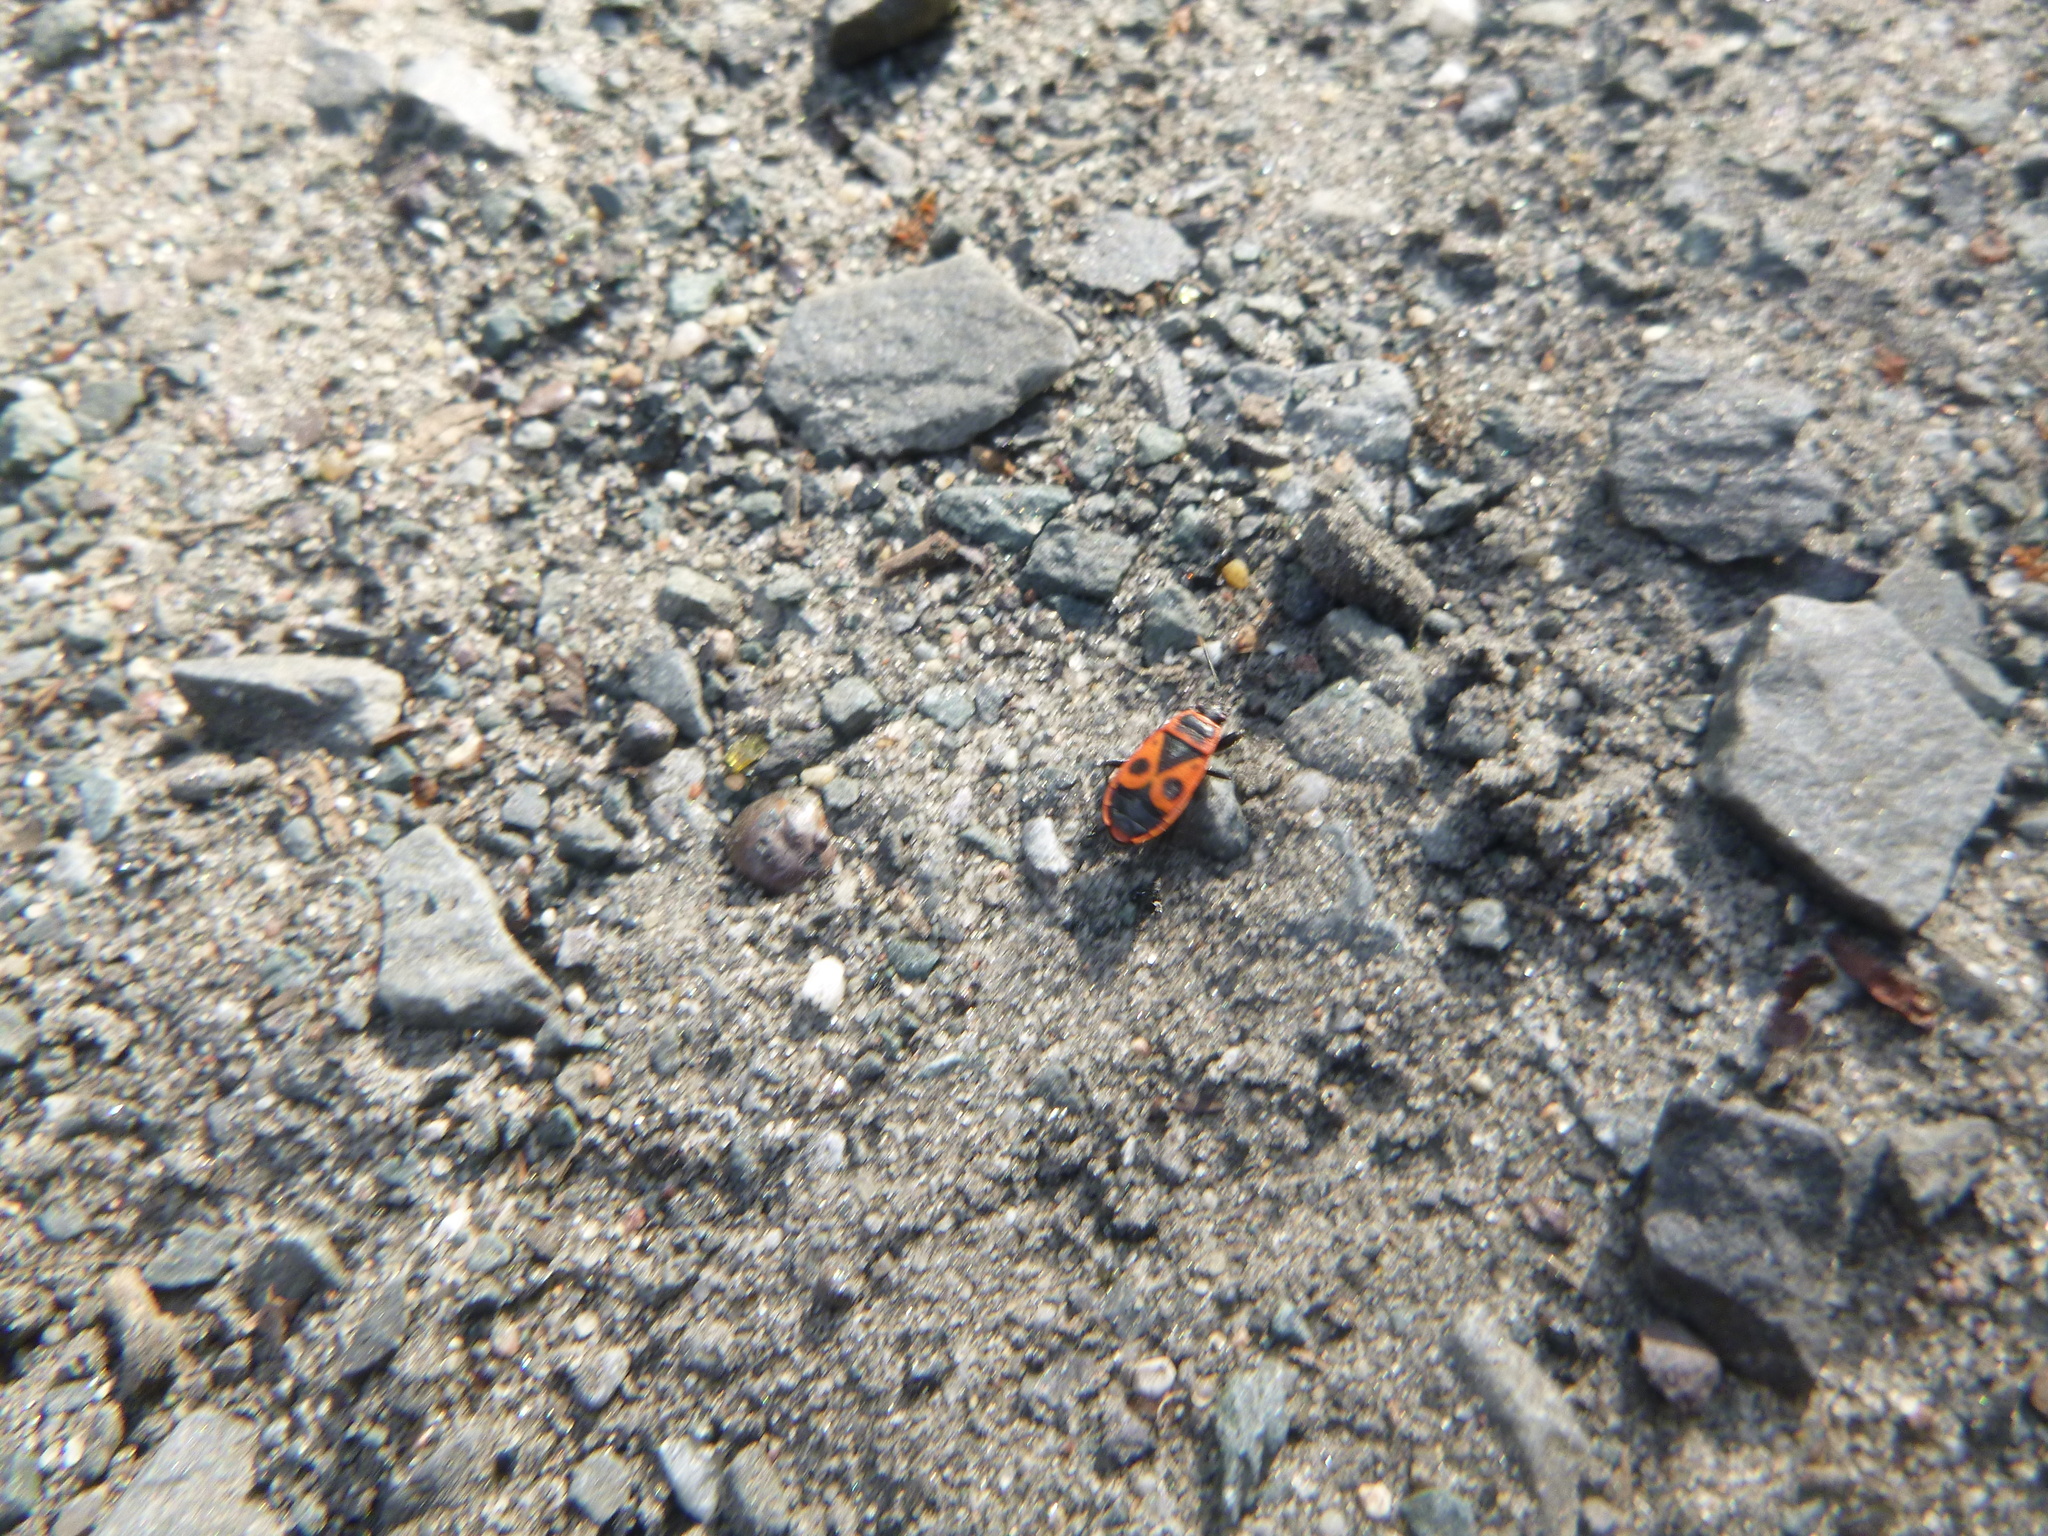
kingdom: Animalia
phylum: Arthropoda
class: Insecta
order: Hemiptera
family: Pyrrhocoridae
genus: Pyrrhocoris
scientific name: Pyrrhocoris apterus
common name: Firebug
